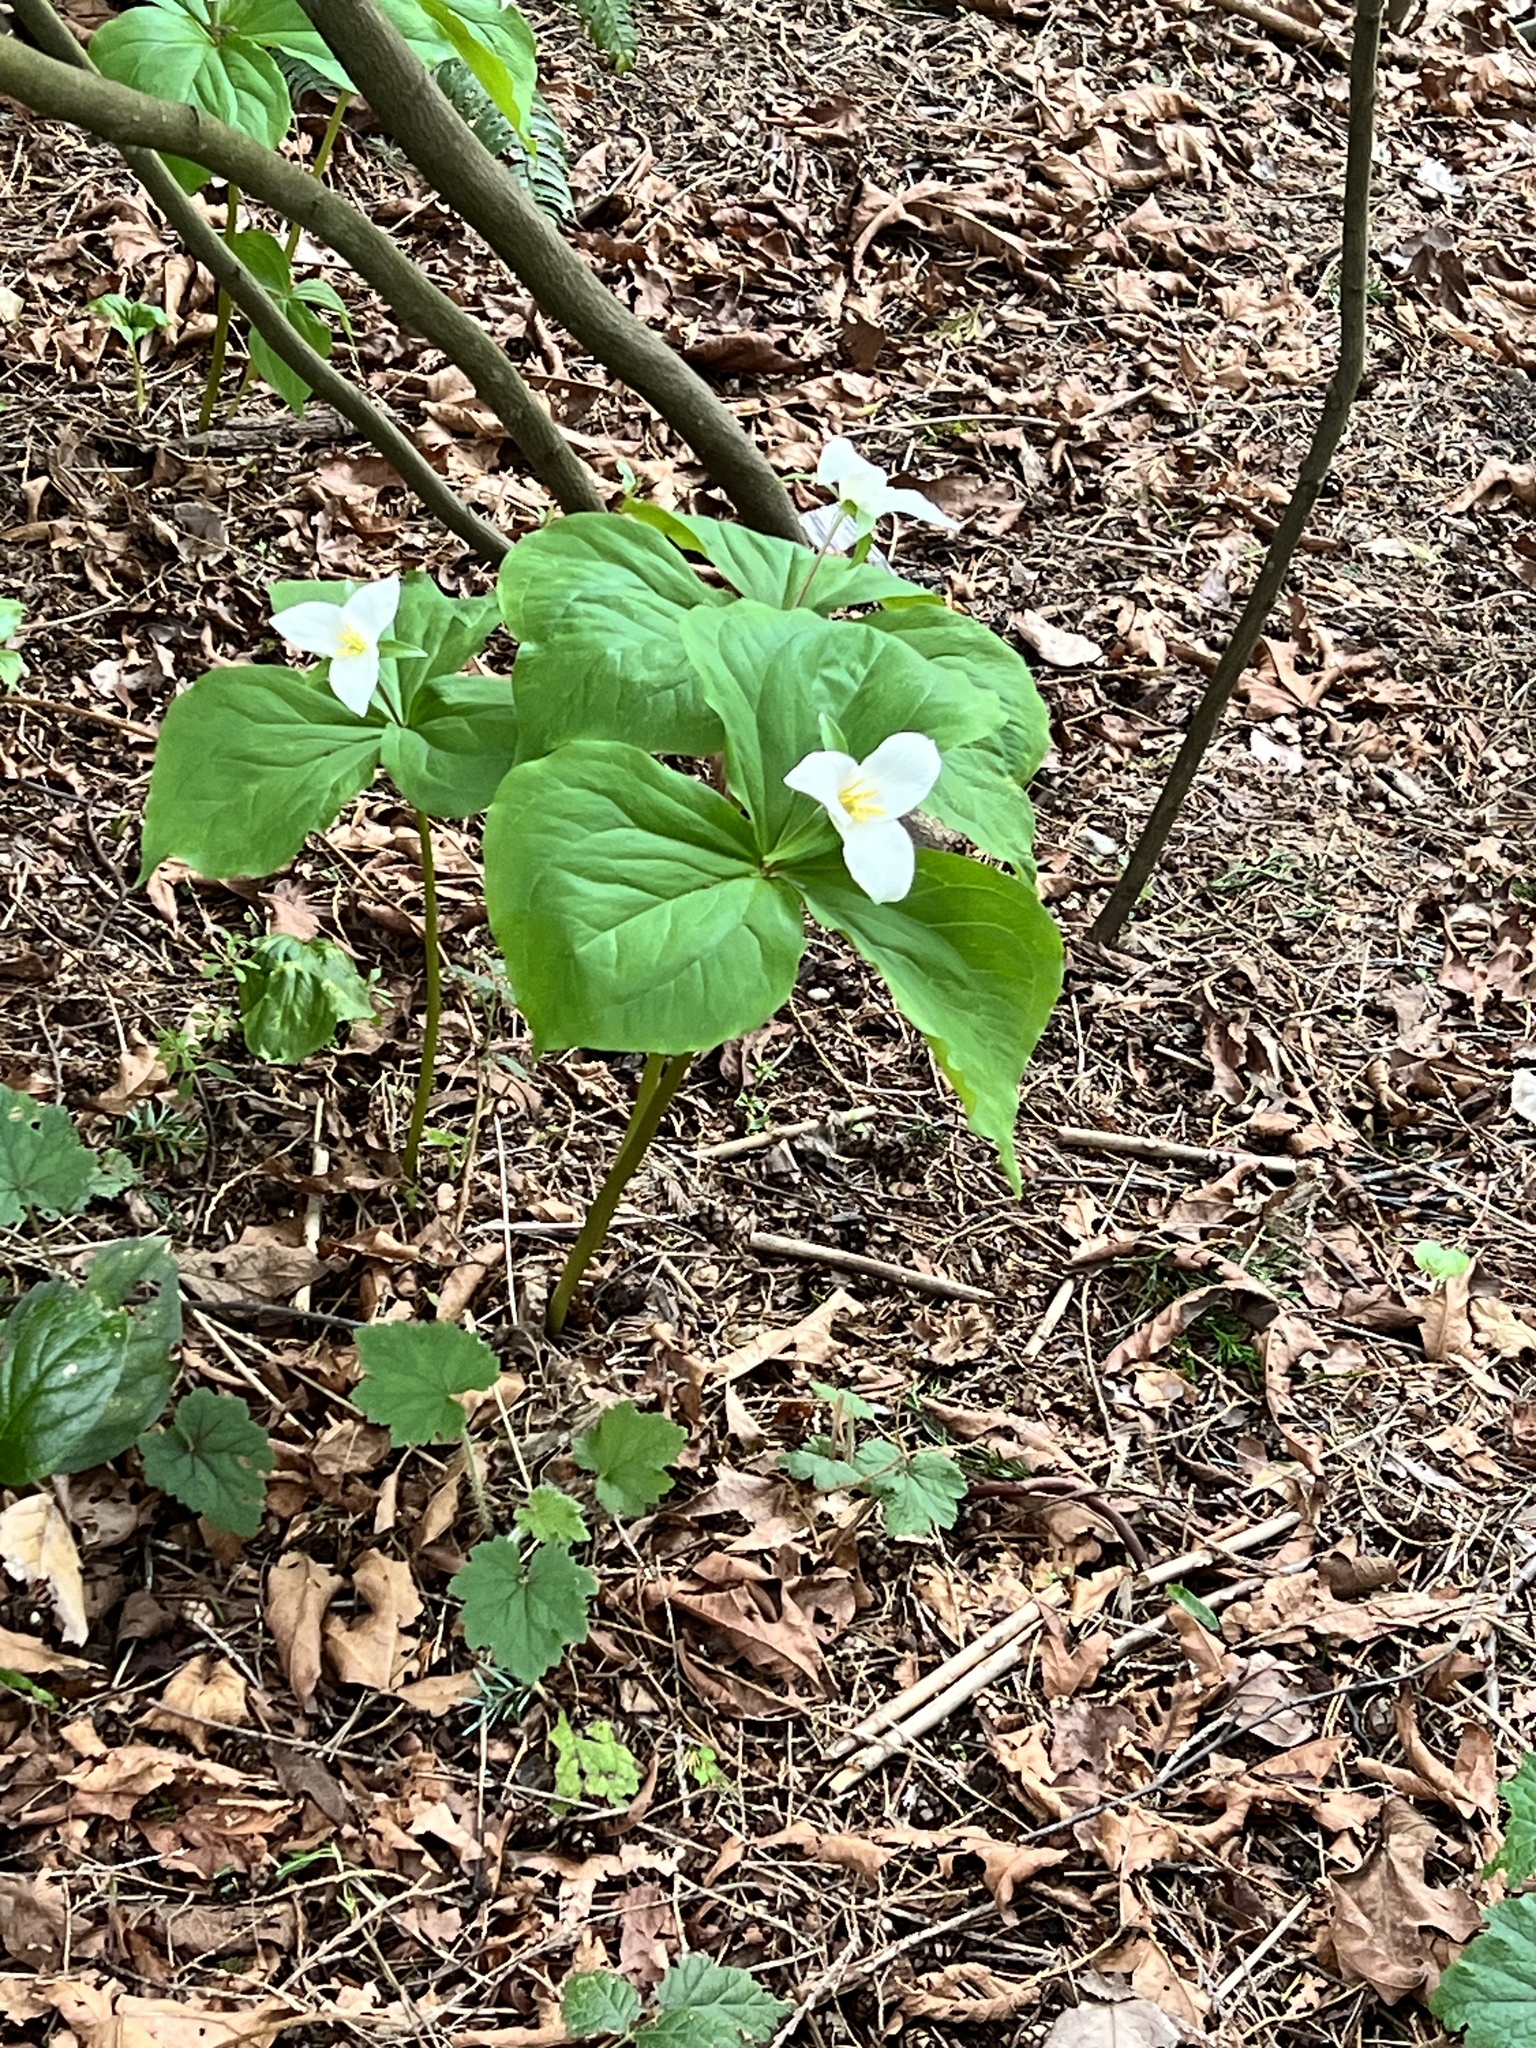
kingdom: Plantae
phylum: Tracheophyta
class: Liliopsida
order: Liliales
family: Melanthiaceae
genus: Trillium
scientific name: Trillium ovatum
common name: Pacific trillium
